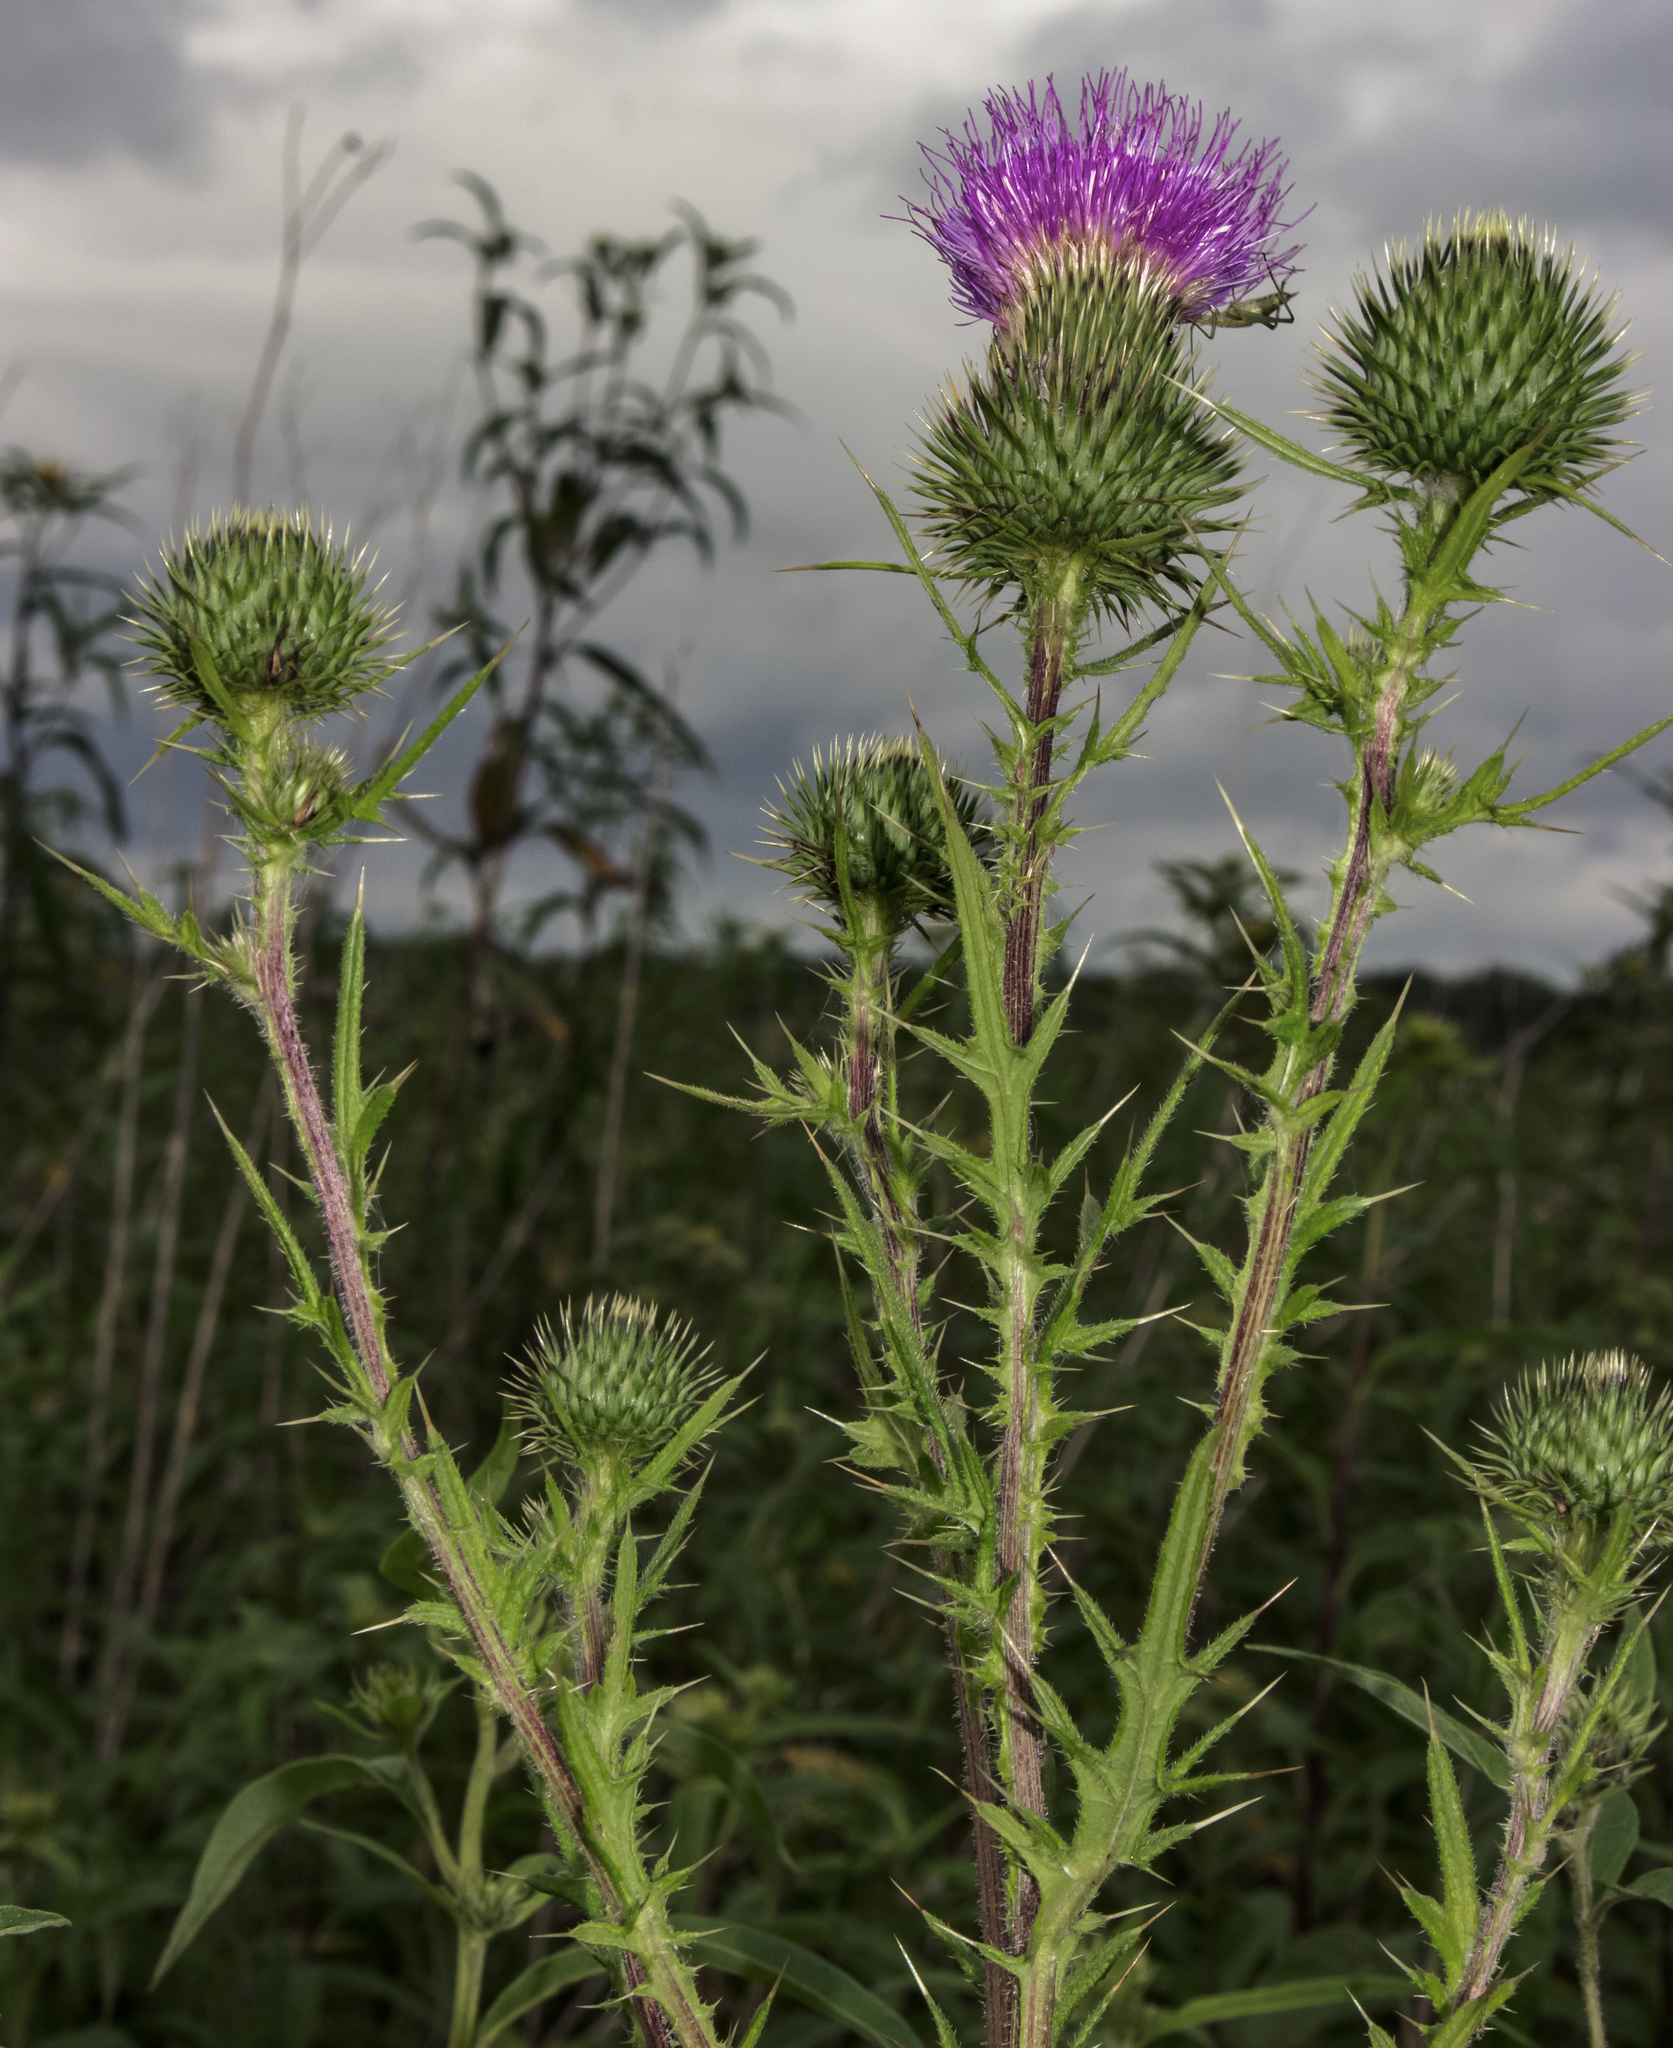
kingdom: Plantae
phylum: Tracheophyta
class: Magnoliopsida
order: Asterales
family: Asteraceae
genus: Cirsium
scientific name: Cirsium vulgare
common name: Bull thistle
